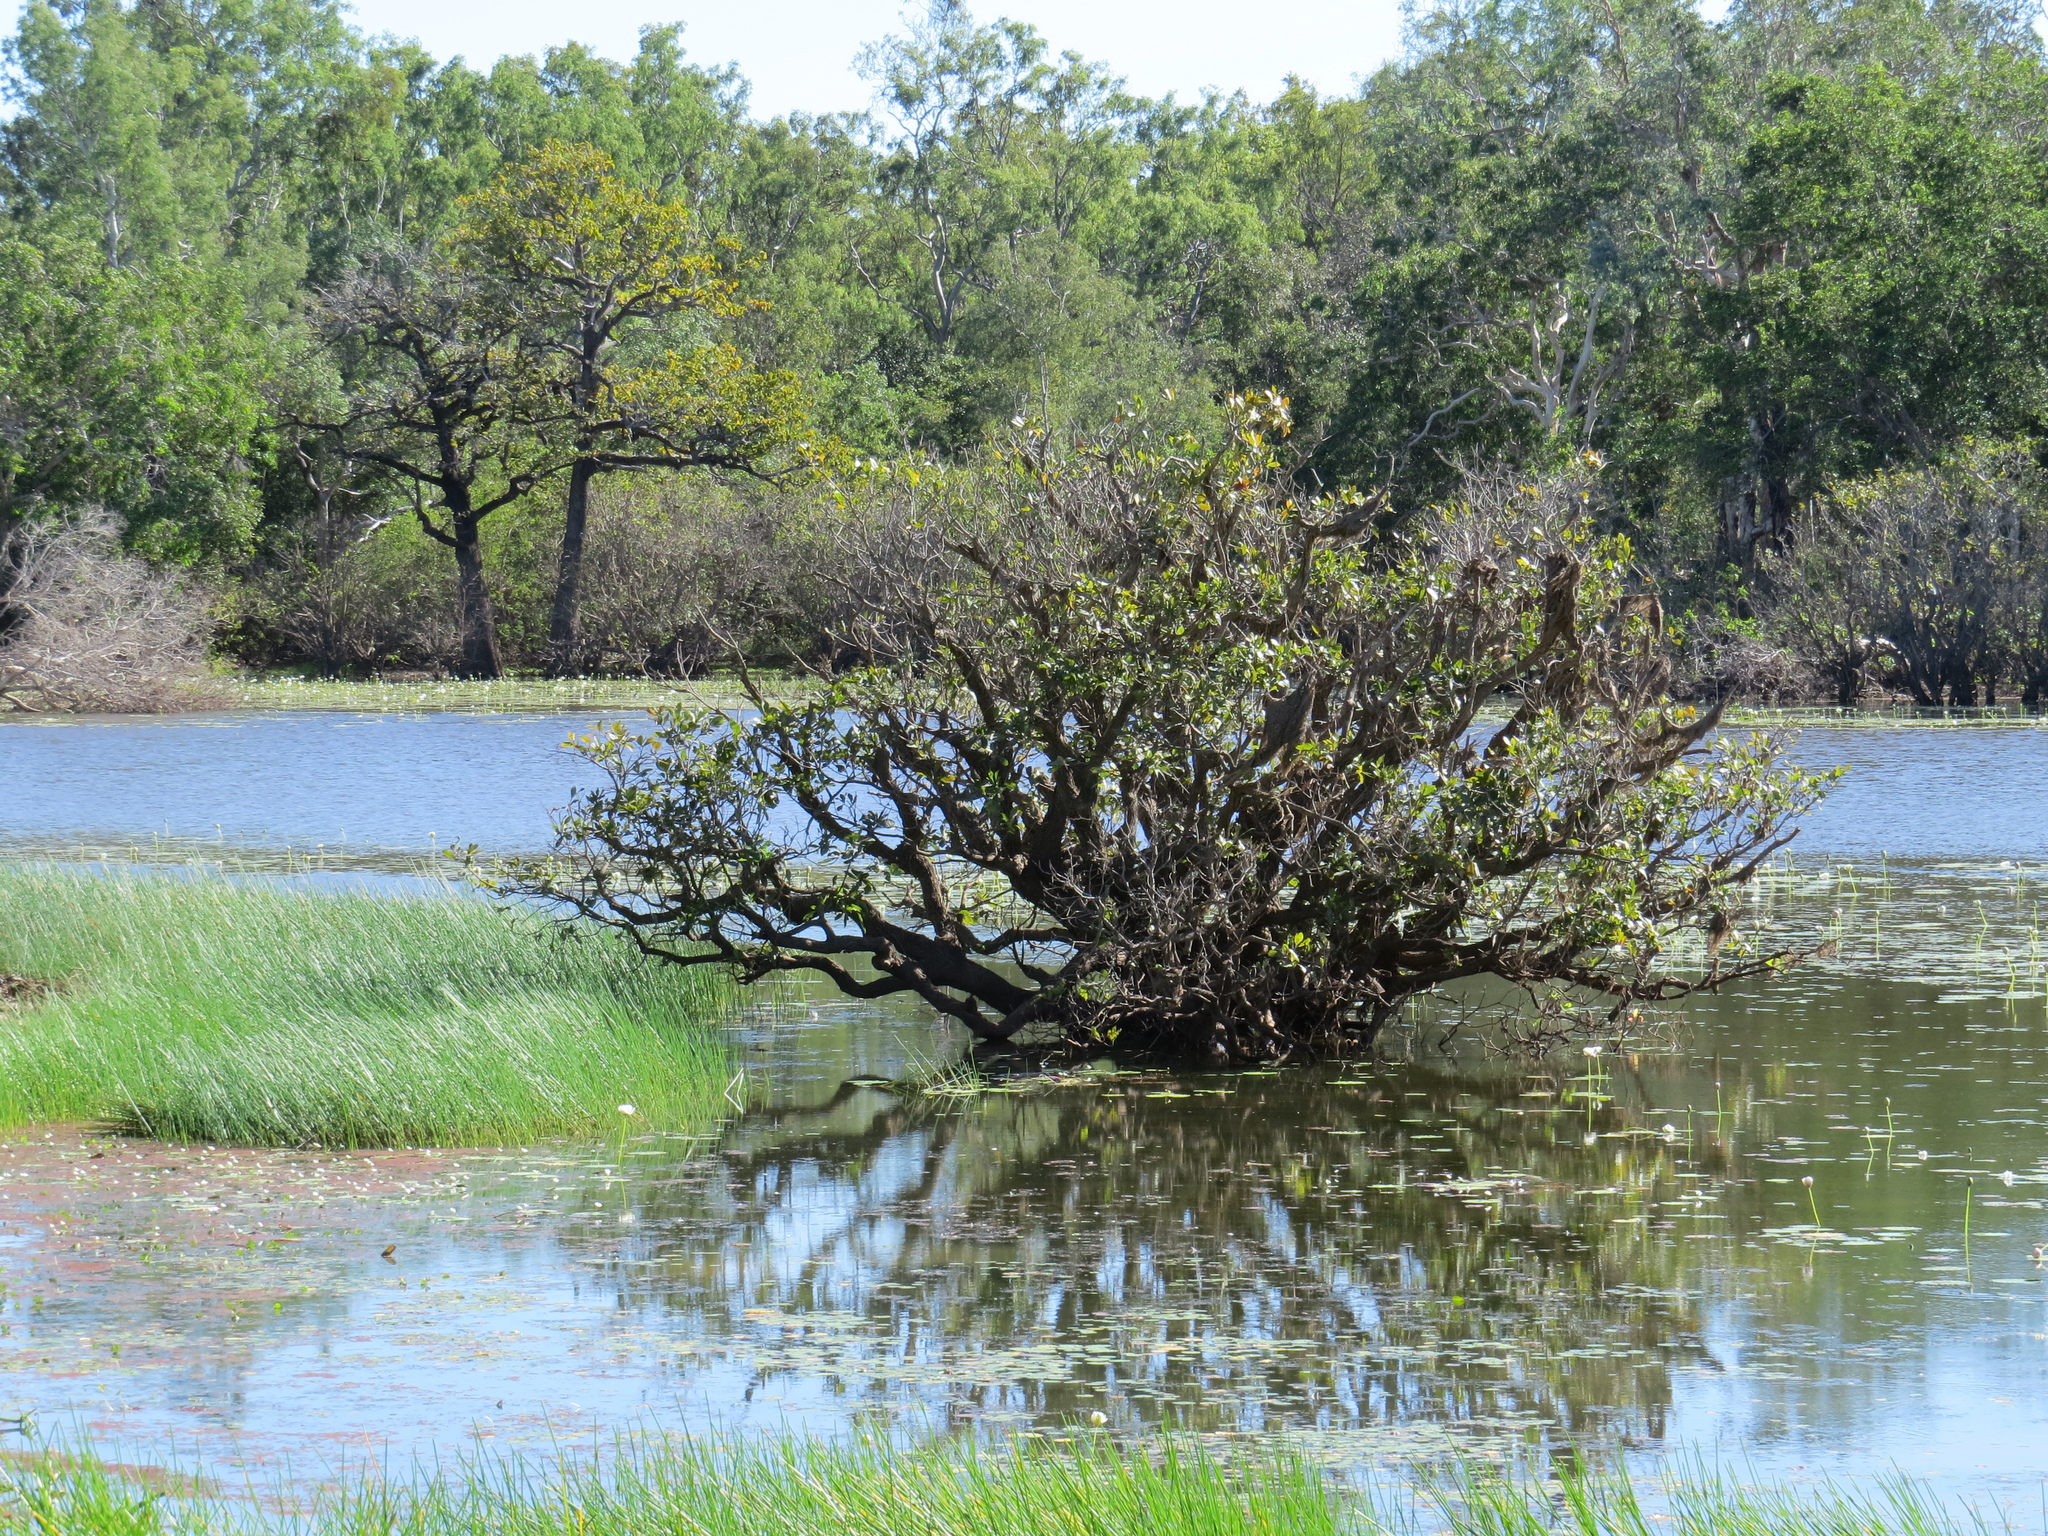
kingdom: Plantae
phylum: Tracheophyta
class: Magnoliopsida
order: Ericales
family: Lecythidaceae
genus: Barringtonia
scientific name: Barringtonia acutangula
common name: Freshwater mangrove
